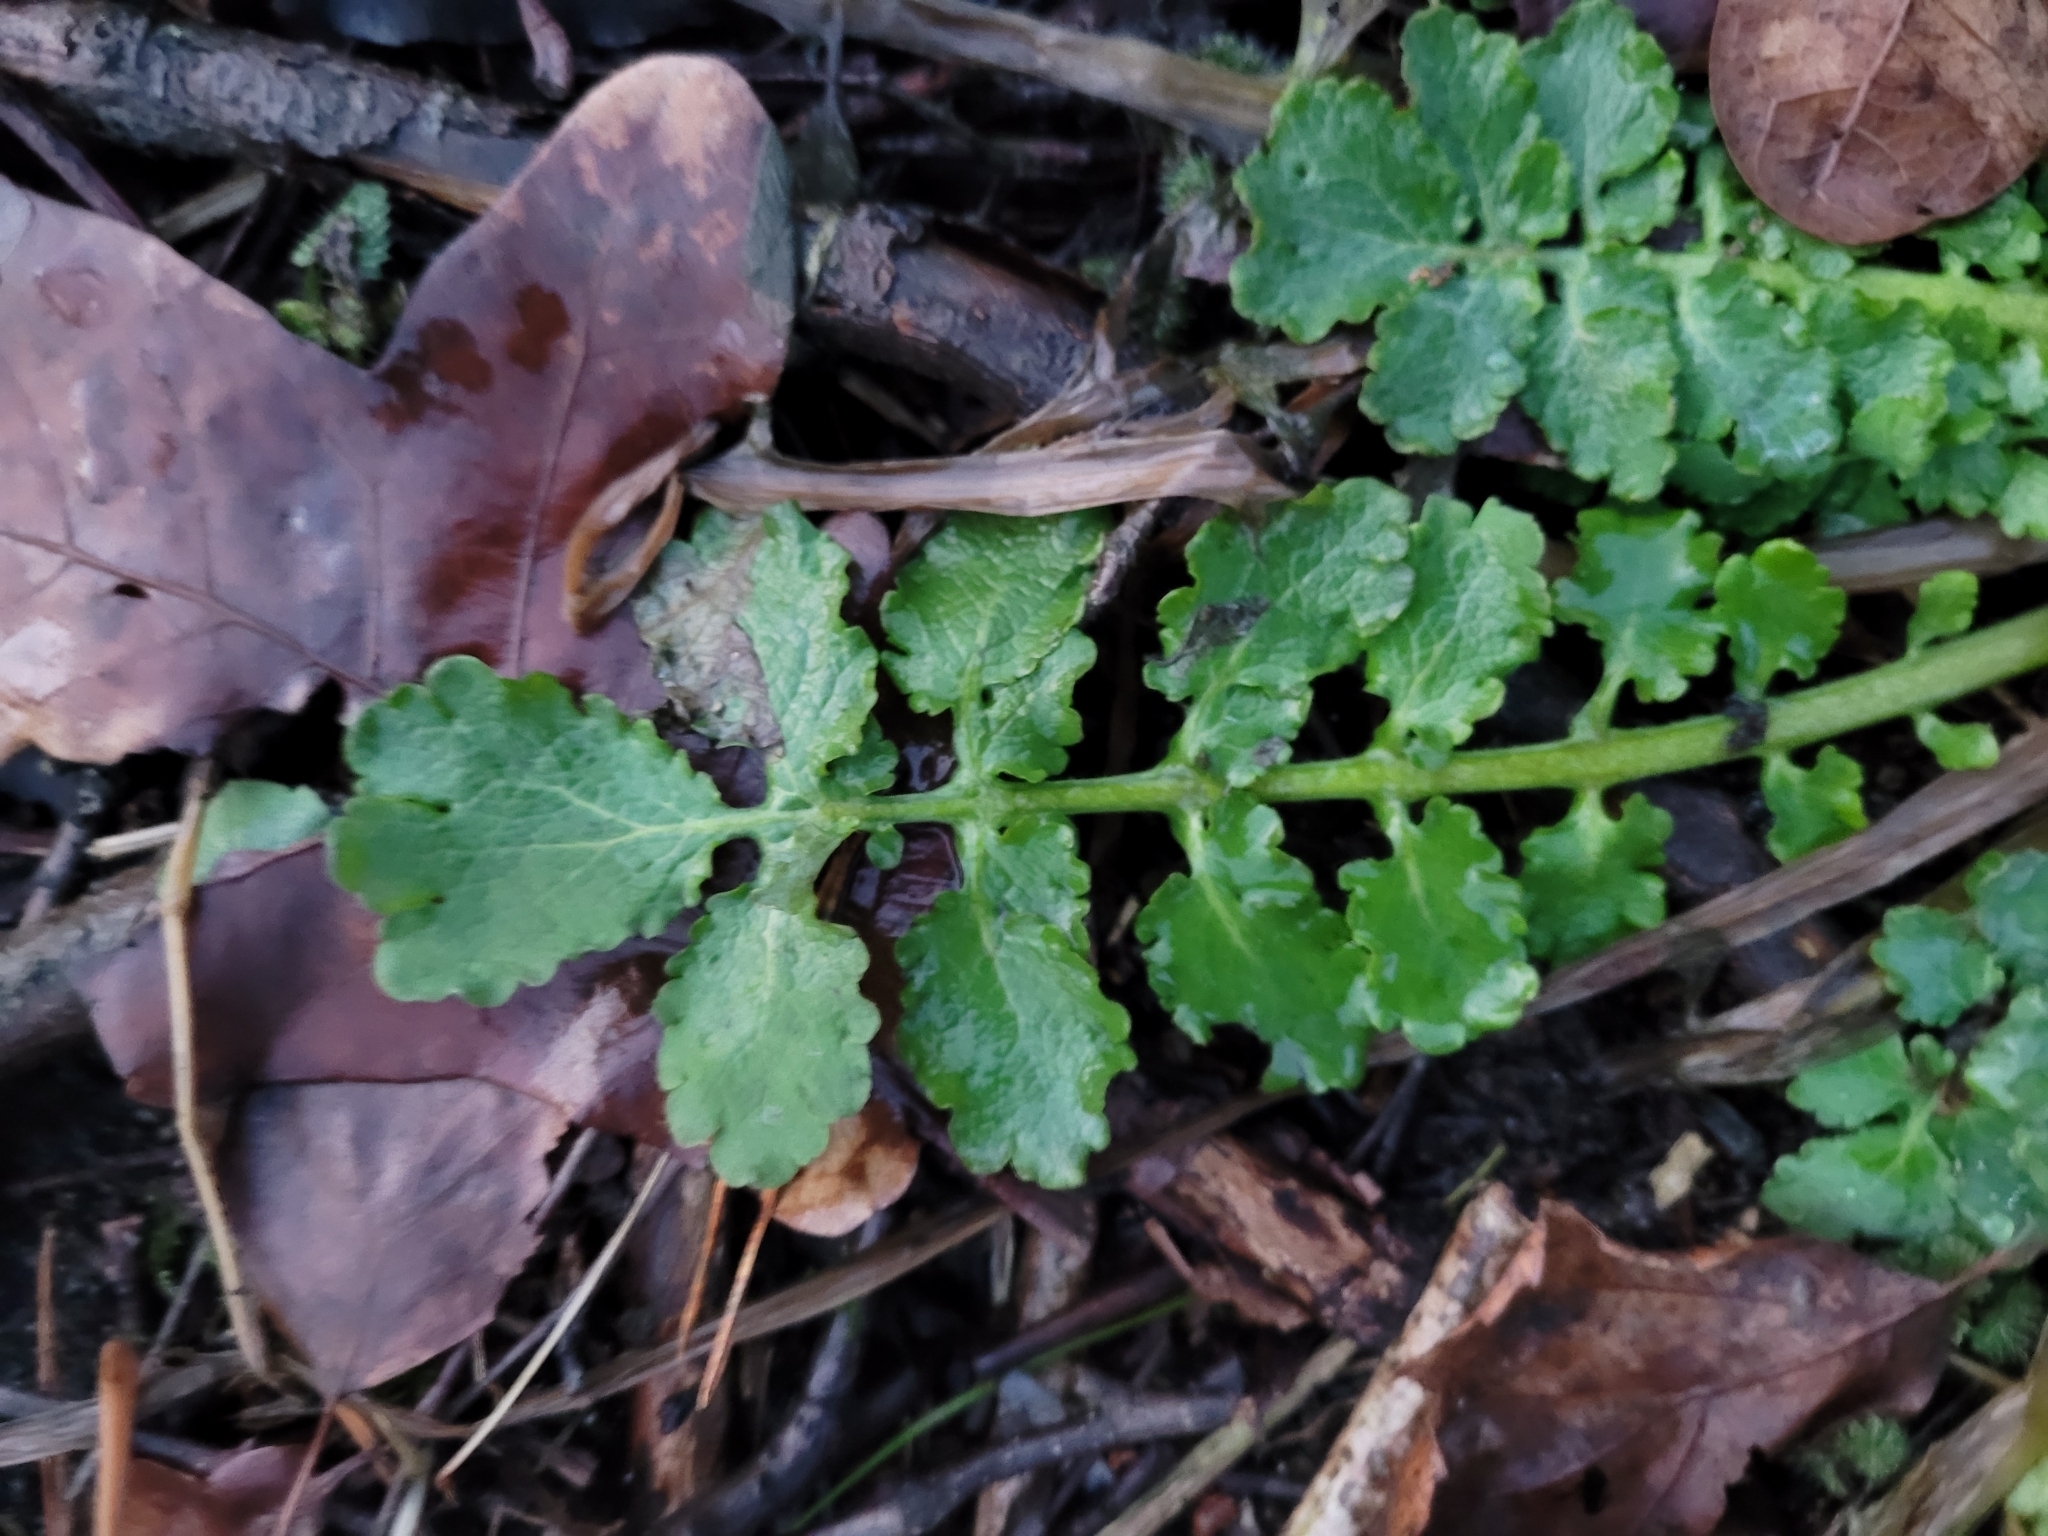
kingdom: Plantae
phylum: Tracheophyta
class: Magnoliopsida
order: Ranunculales
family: Papaveraceae
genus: Chelidonium
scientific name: Chelidonium majus
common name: Greater celandine
